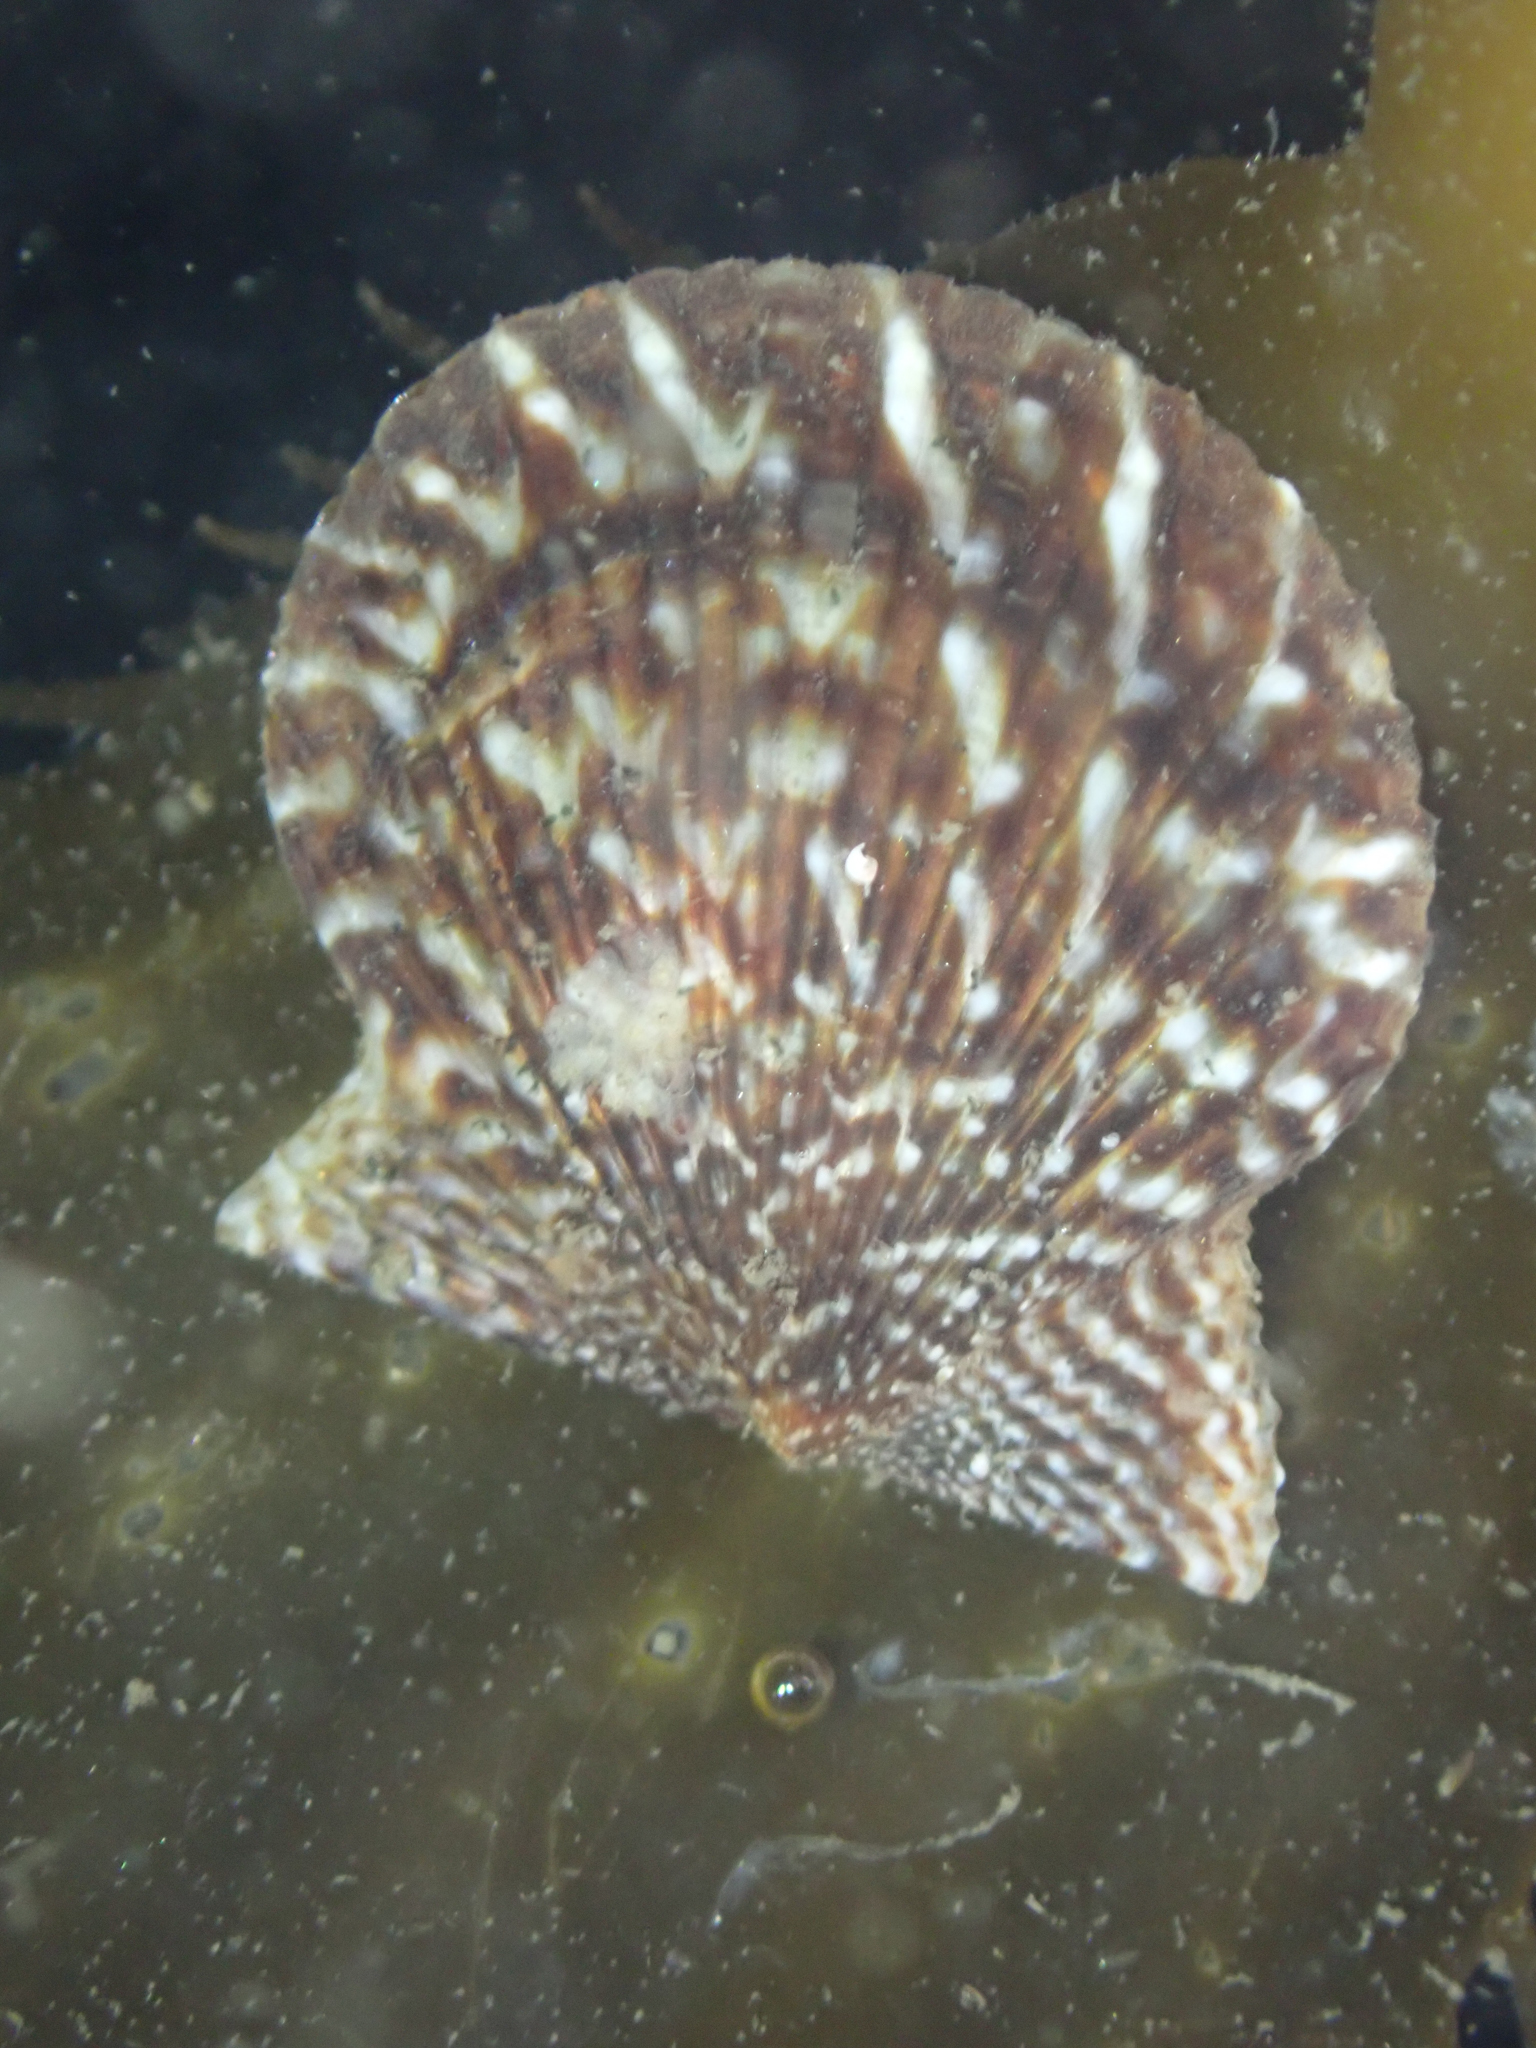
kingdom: Animalia
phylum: Mollusca
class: Bivalvia
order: Pectinida
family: Pectinidae
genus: Leptopecten
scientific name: Leptopecten latiauratus
